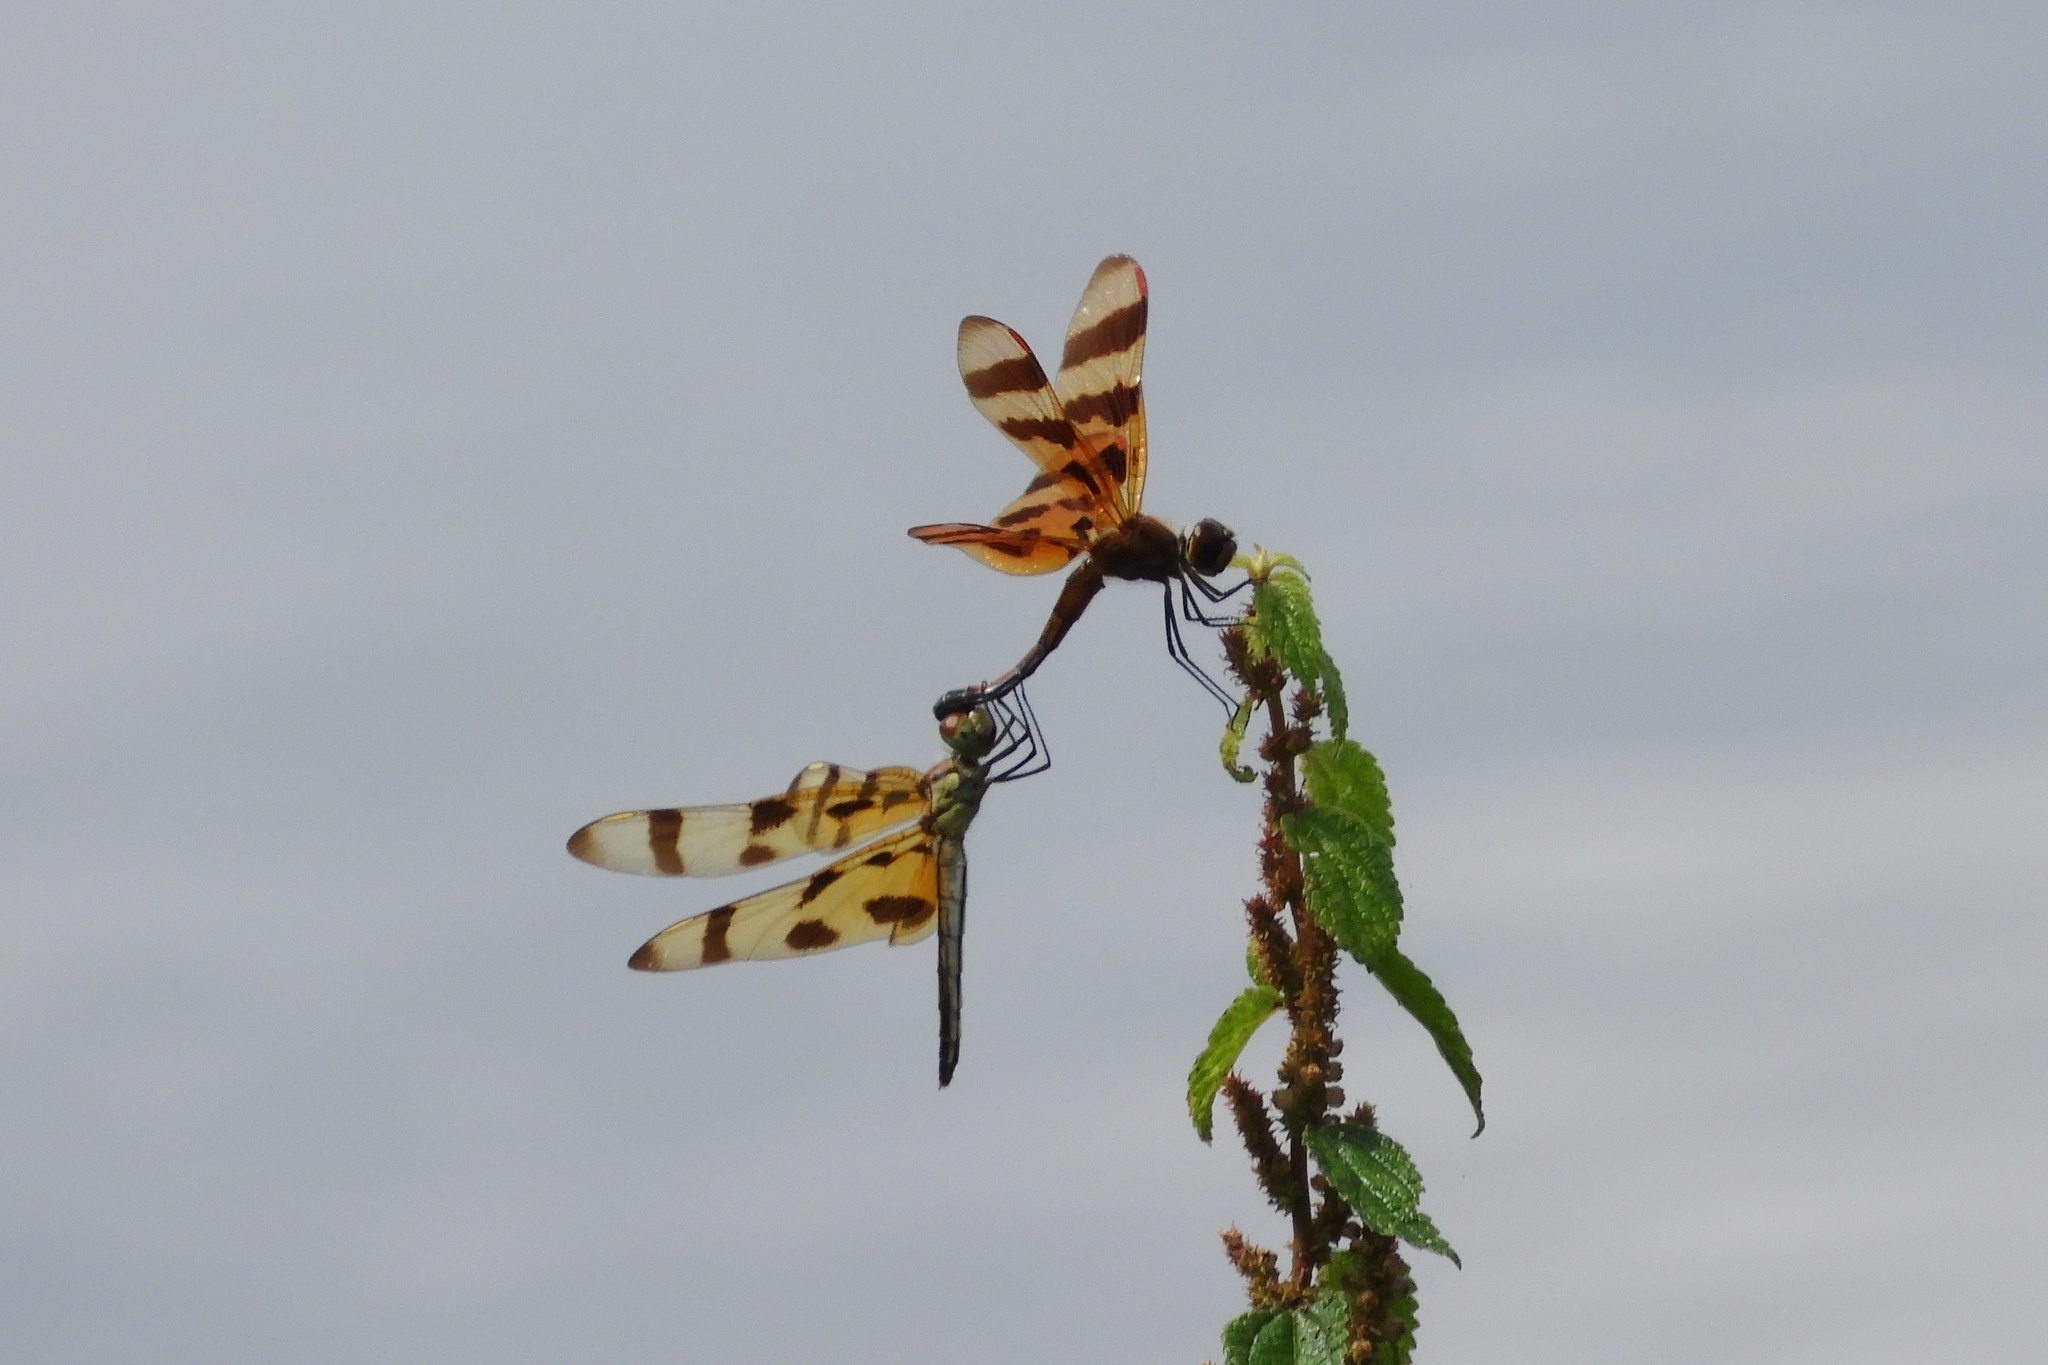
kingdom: Animalia
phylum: Arthropoda
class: Insecta
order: Odonata
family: Libellulidae
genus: Celithemis
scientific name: Celithemis eponina
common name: Halloween pennant
